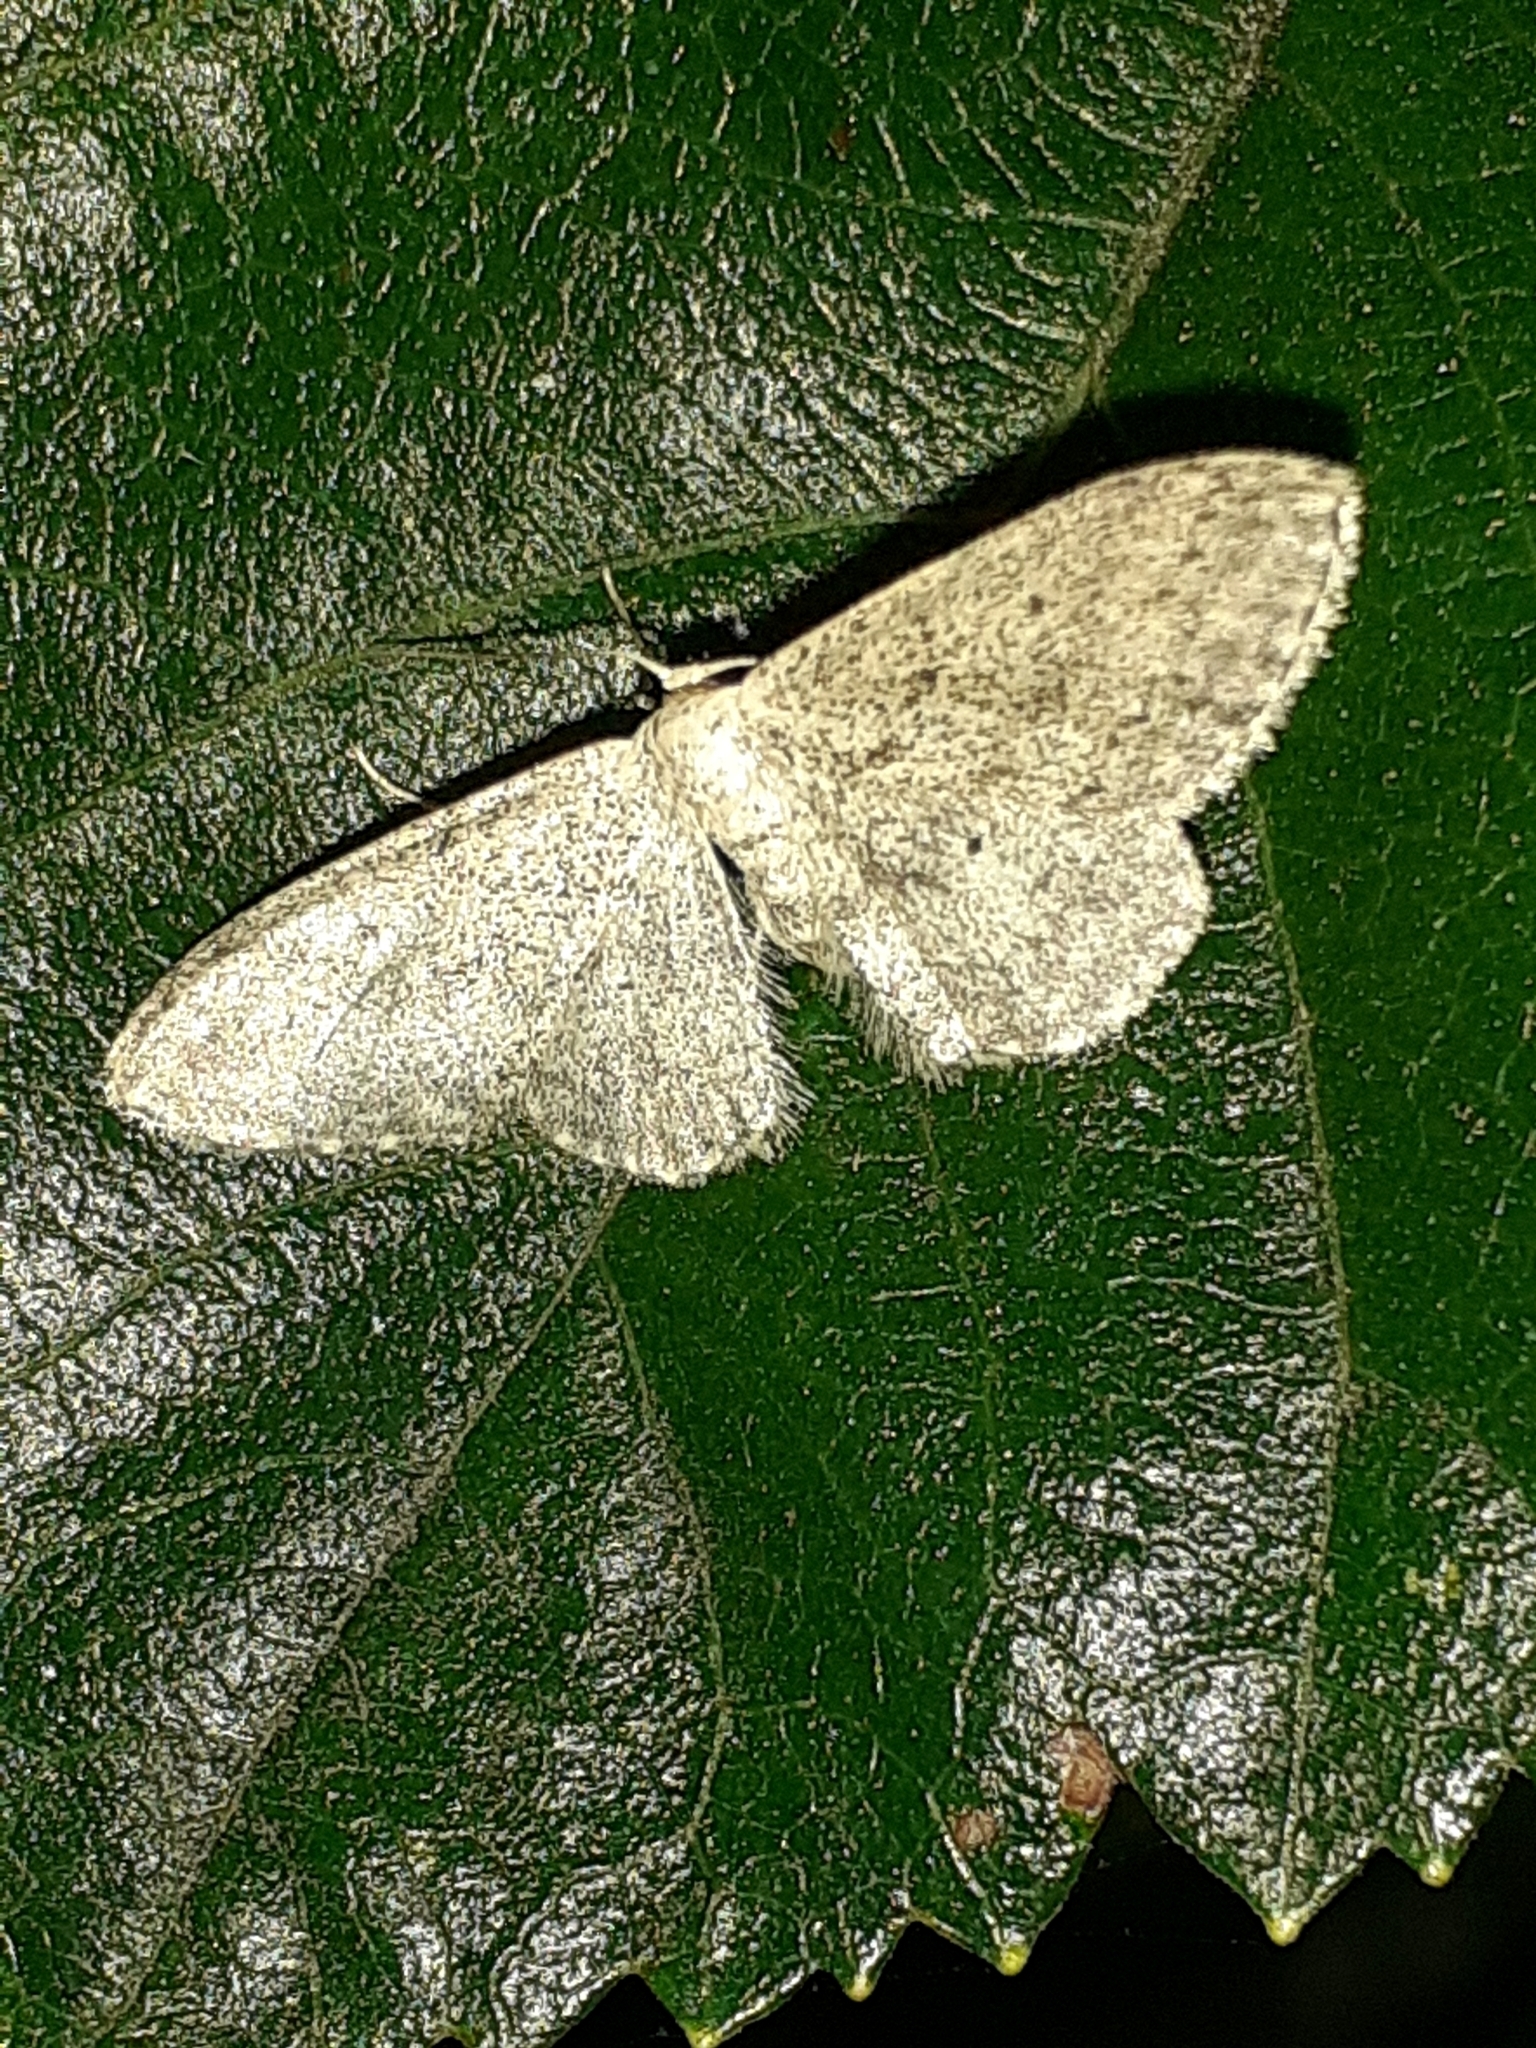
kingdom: Animalia
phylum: Arthropoda
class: Insecta
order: Lepidoptera
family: Geometridae
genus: Idaea
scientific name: Idaea seriata
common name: Small dusty wave
